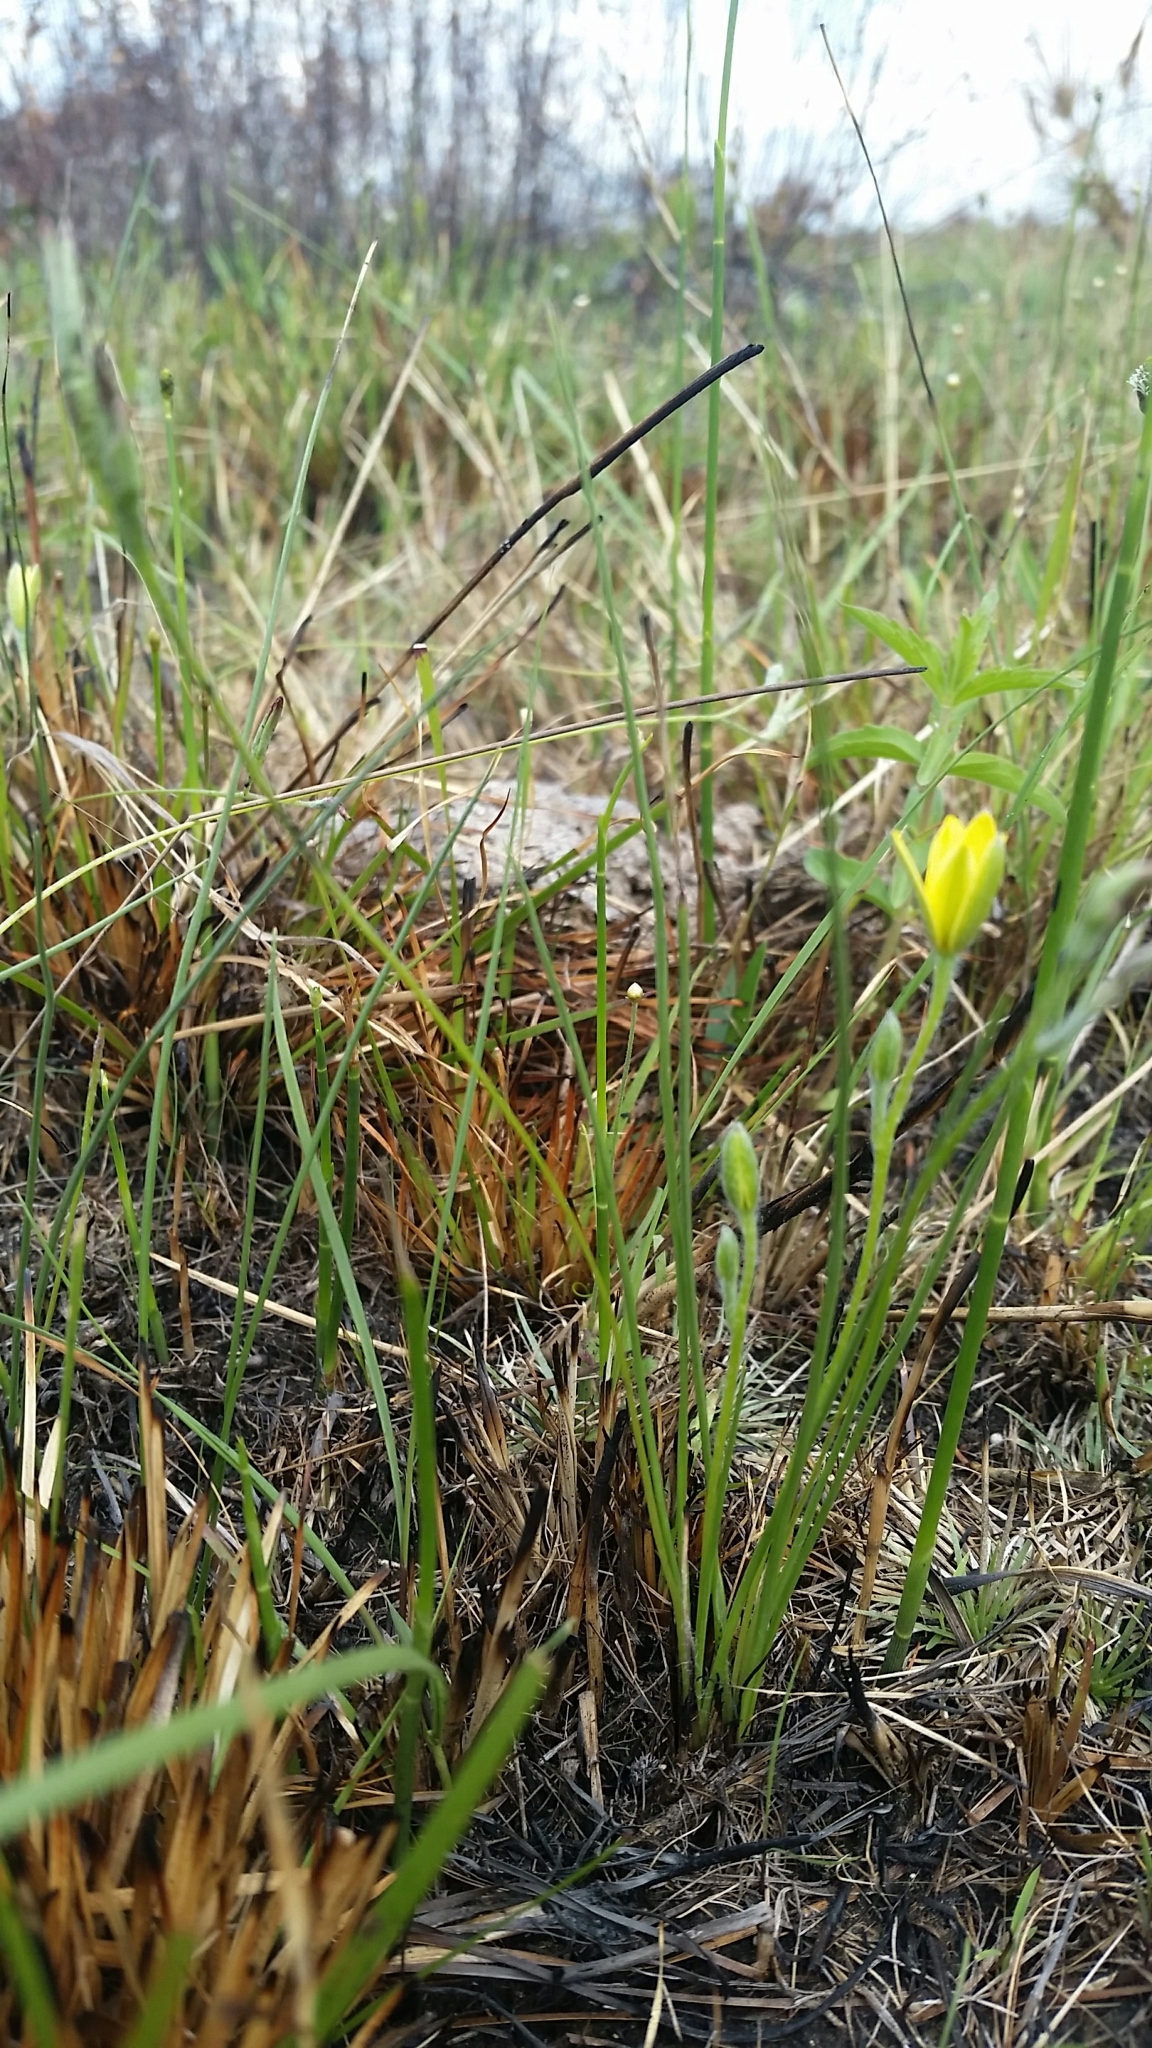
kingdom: Plantae
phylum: Tracheophyta
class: Liliopsida
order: Asparagales
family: Hypoxidaceae
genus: Hypoxis
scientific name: Hypoxis juncea
